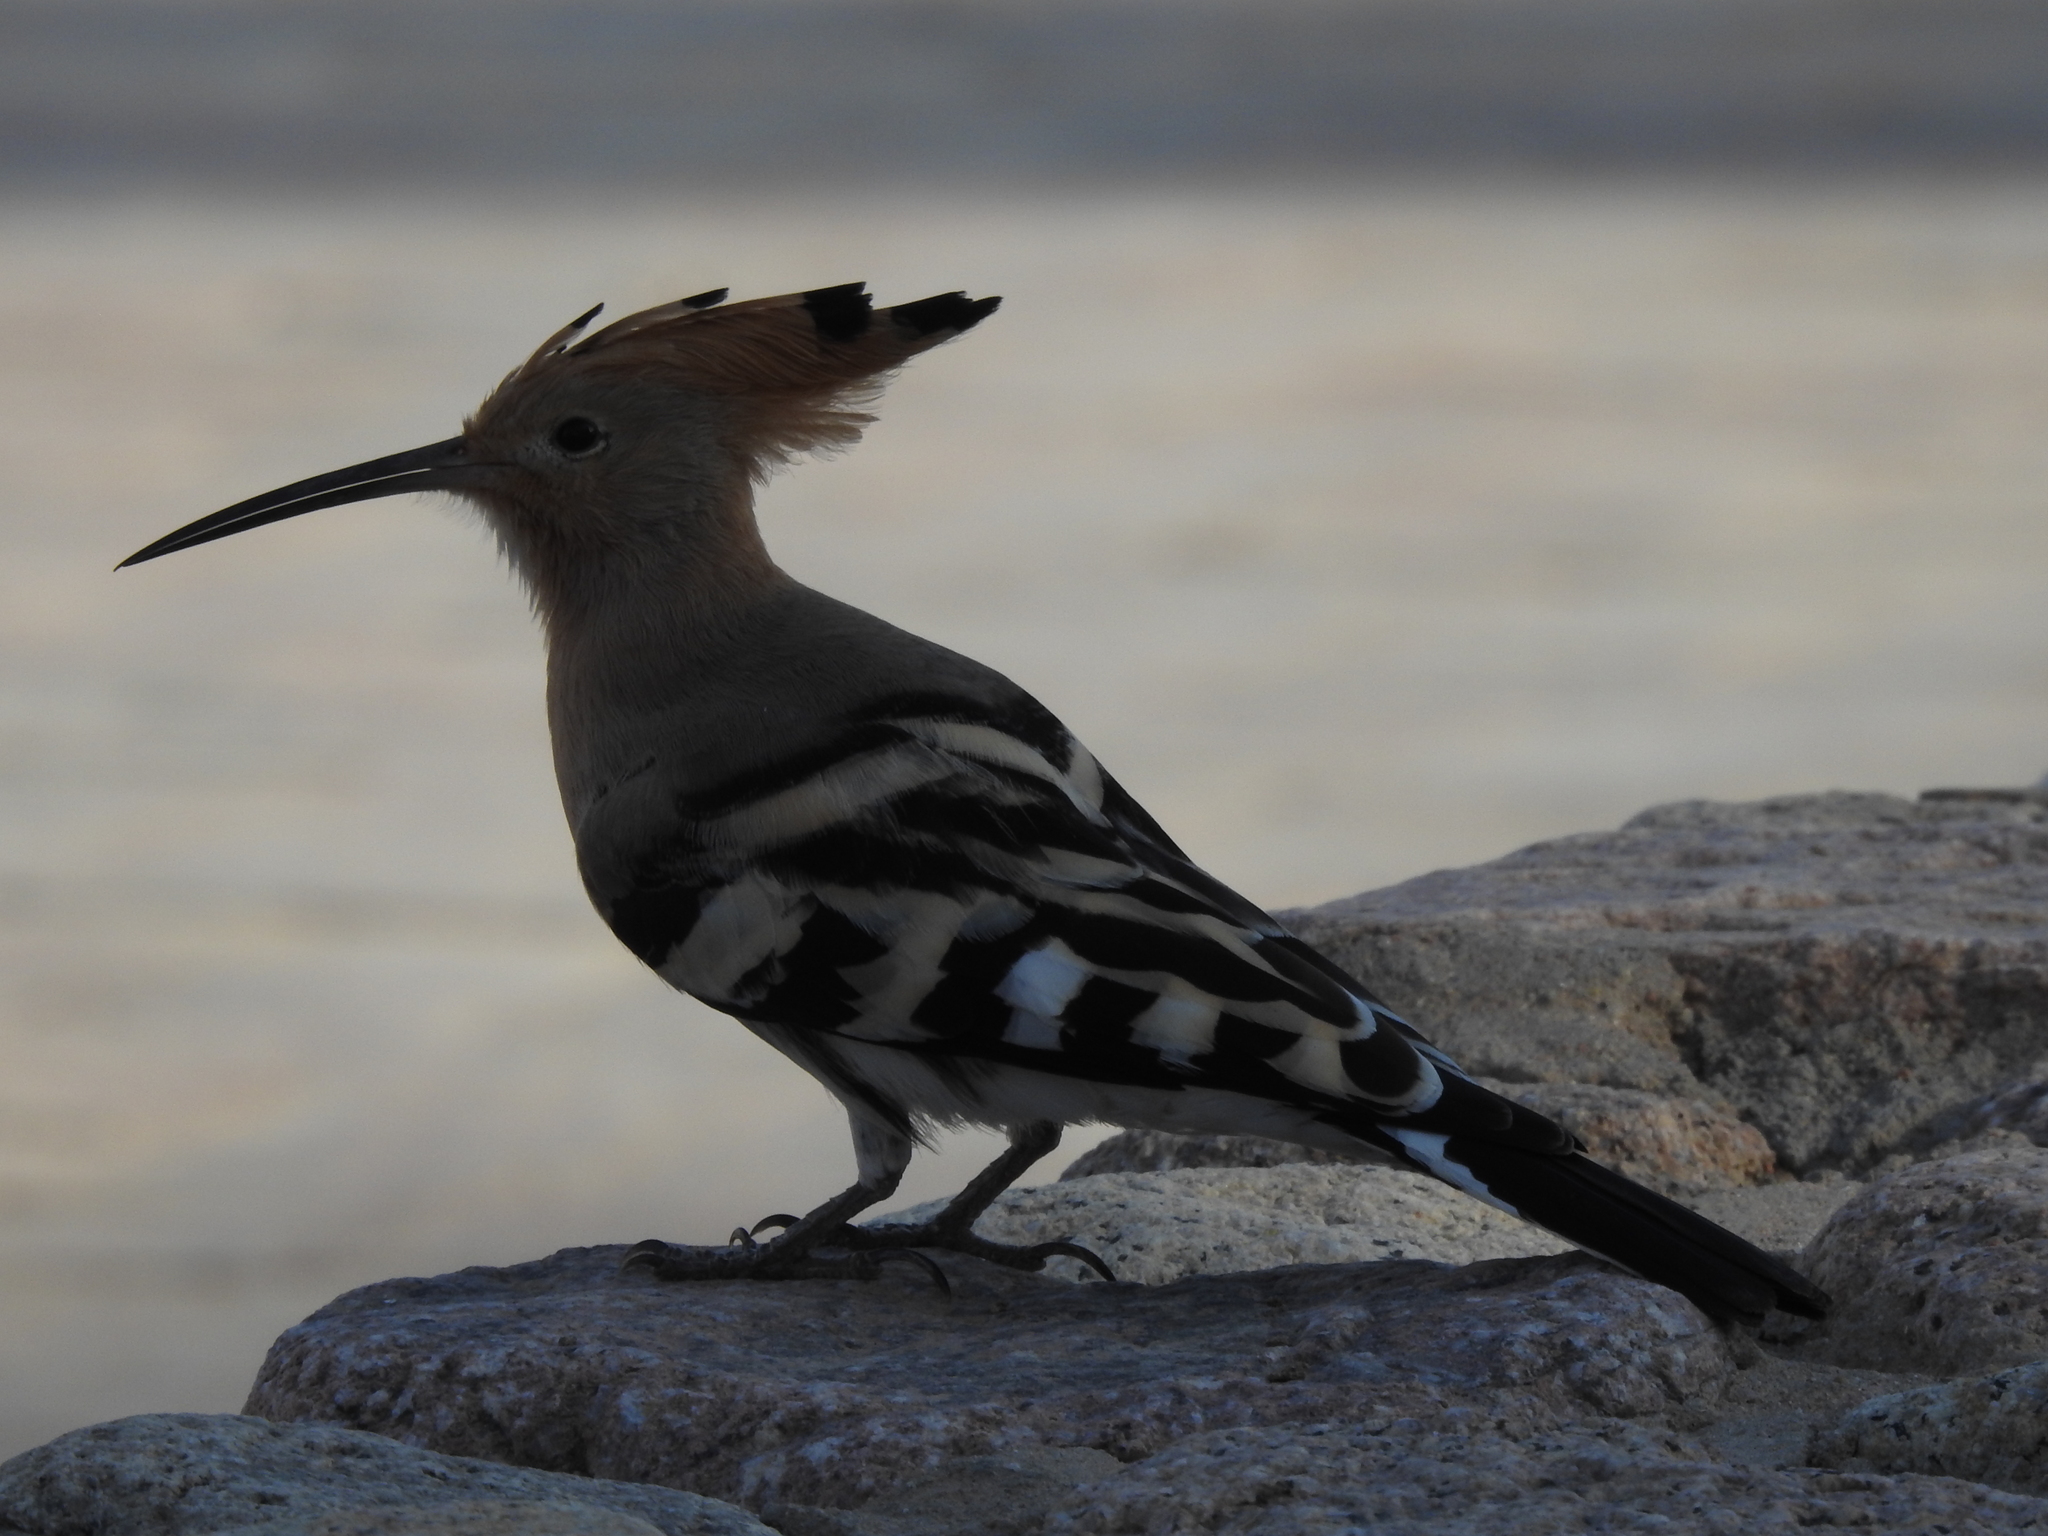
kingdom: Animalia
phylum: Chordata
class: Aves
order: Bucerotiformes
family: Upupidae
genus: Upupa
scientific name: Upupa epops
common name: Eurasian hoopoe
